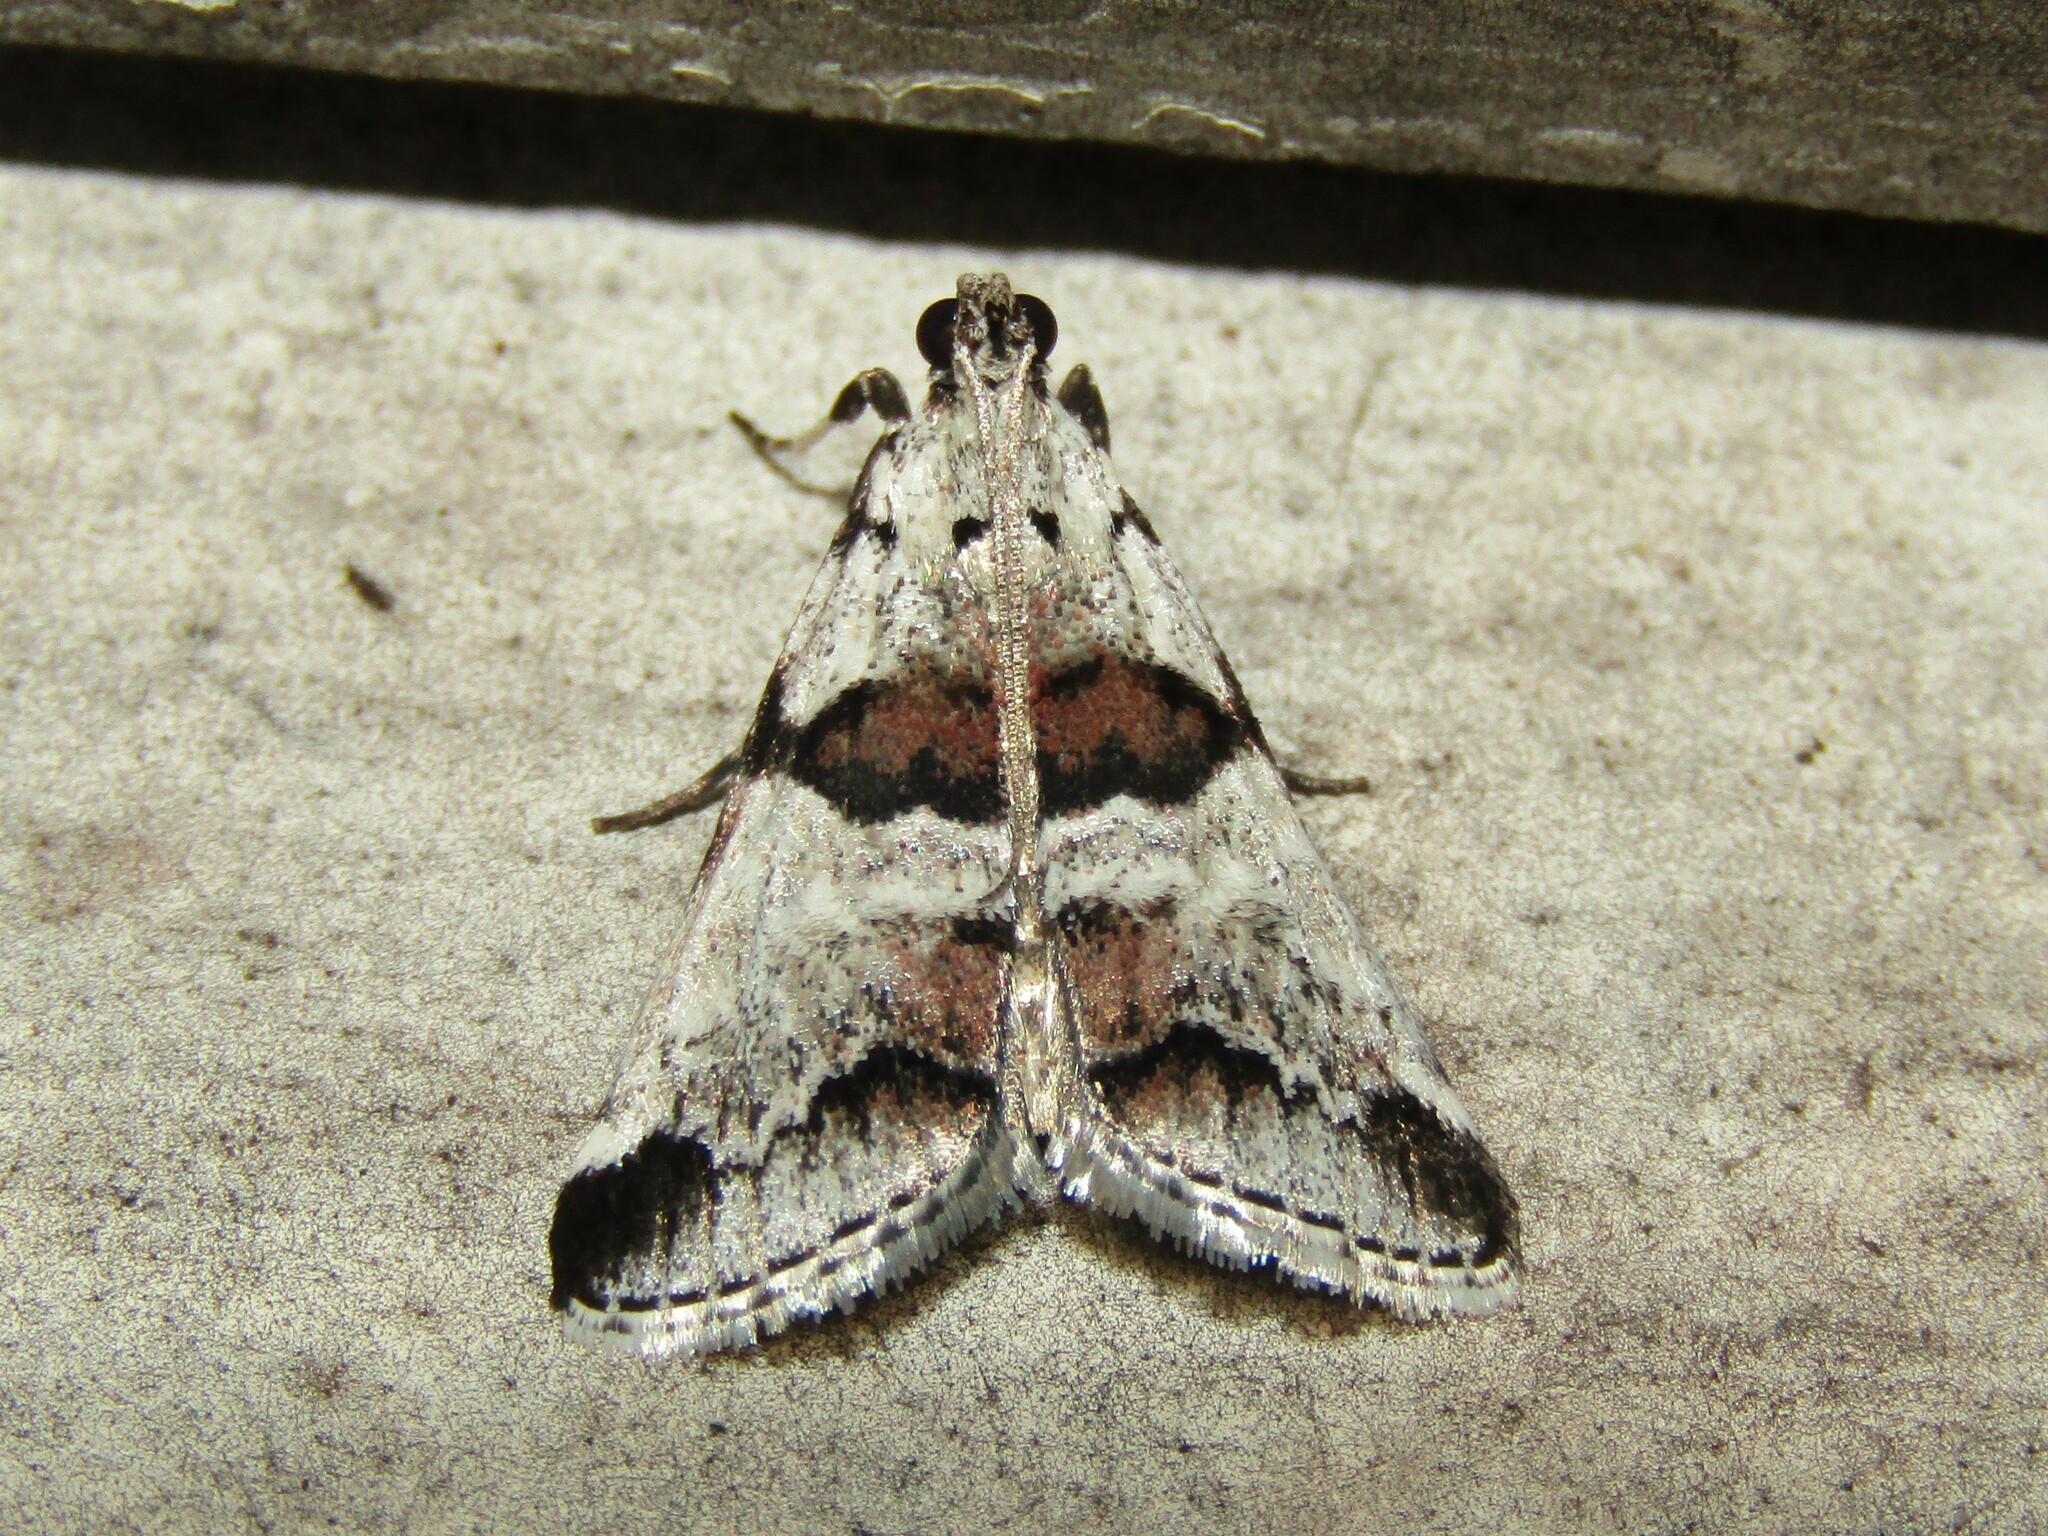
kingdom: Animalia
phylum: Arthropoda
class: Insecta
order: Lepidoptera
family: Pyralidae
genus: Tallula
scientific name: Tallula atrifascialis
